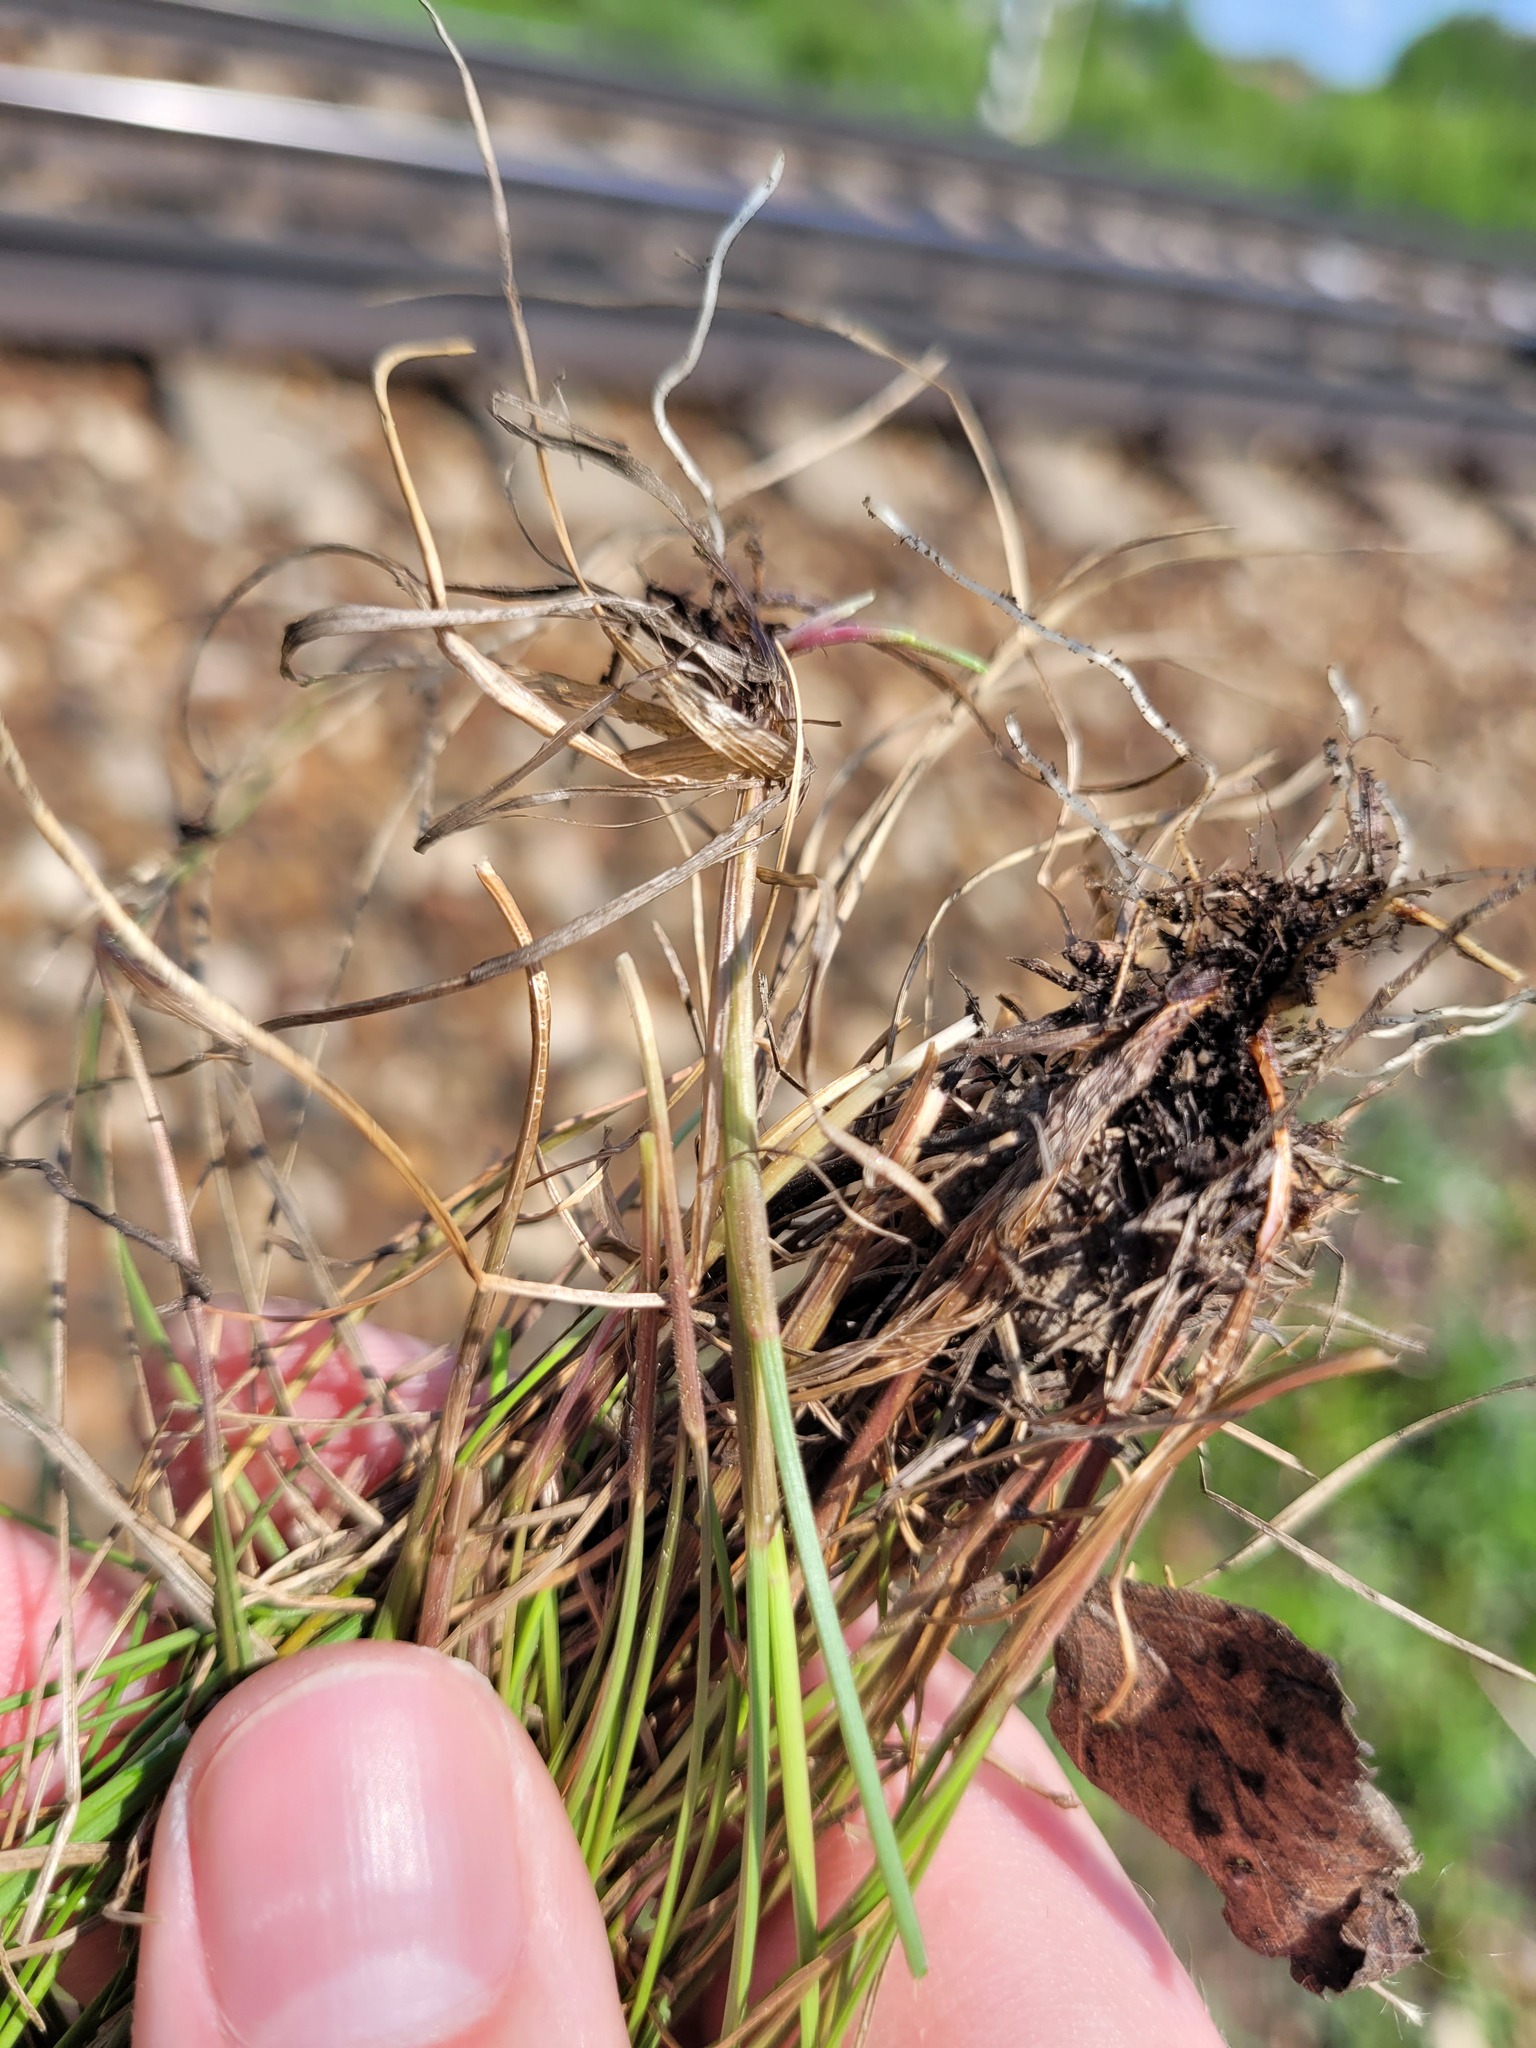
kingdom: Plantae
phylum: Tracheophyta
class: Liliopsida
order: Poales
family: Poaceae
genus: Festuca
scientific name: Festuca rubra
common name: Red fescue
